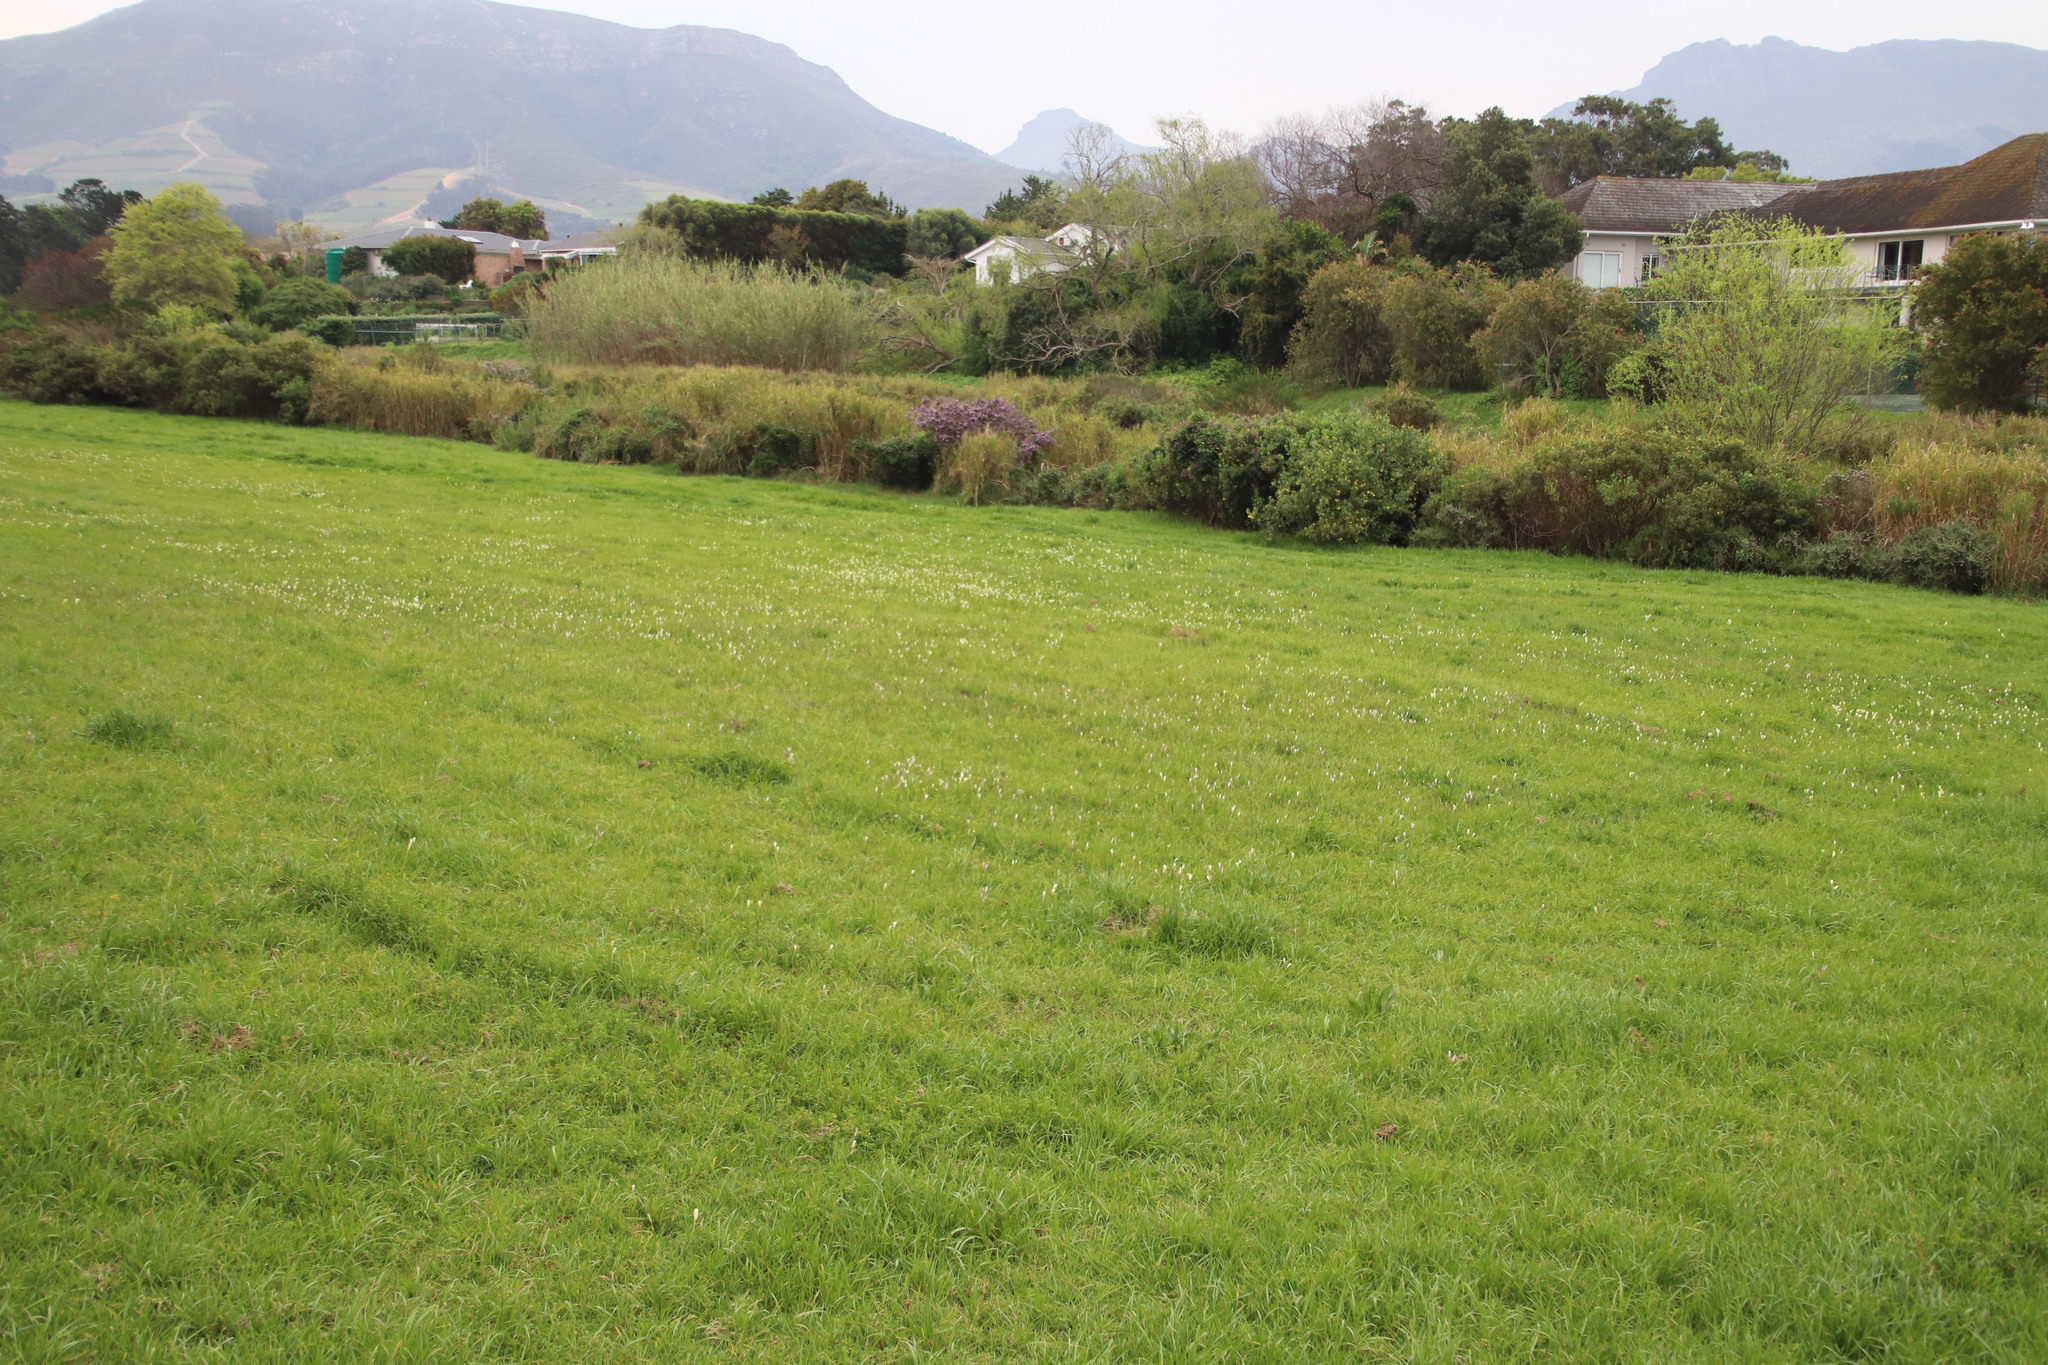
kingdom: Plantae
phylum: Tracheophyta
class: Liliopsida
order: Asparagales
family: Iridaceae
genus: Sparaxis
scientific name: Sparaxis bulbifera
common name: Harlequin-flower
